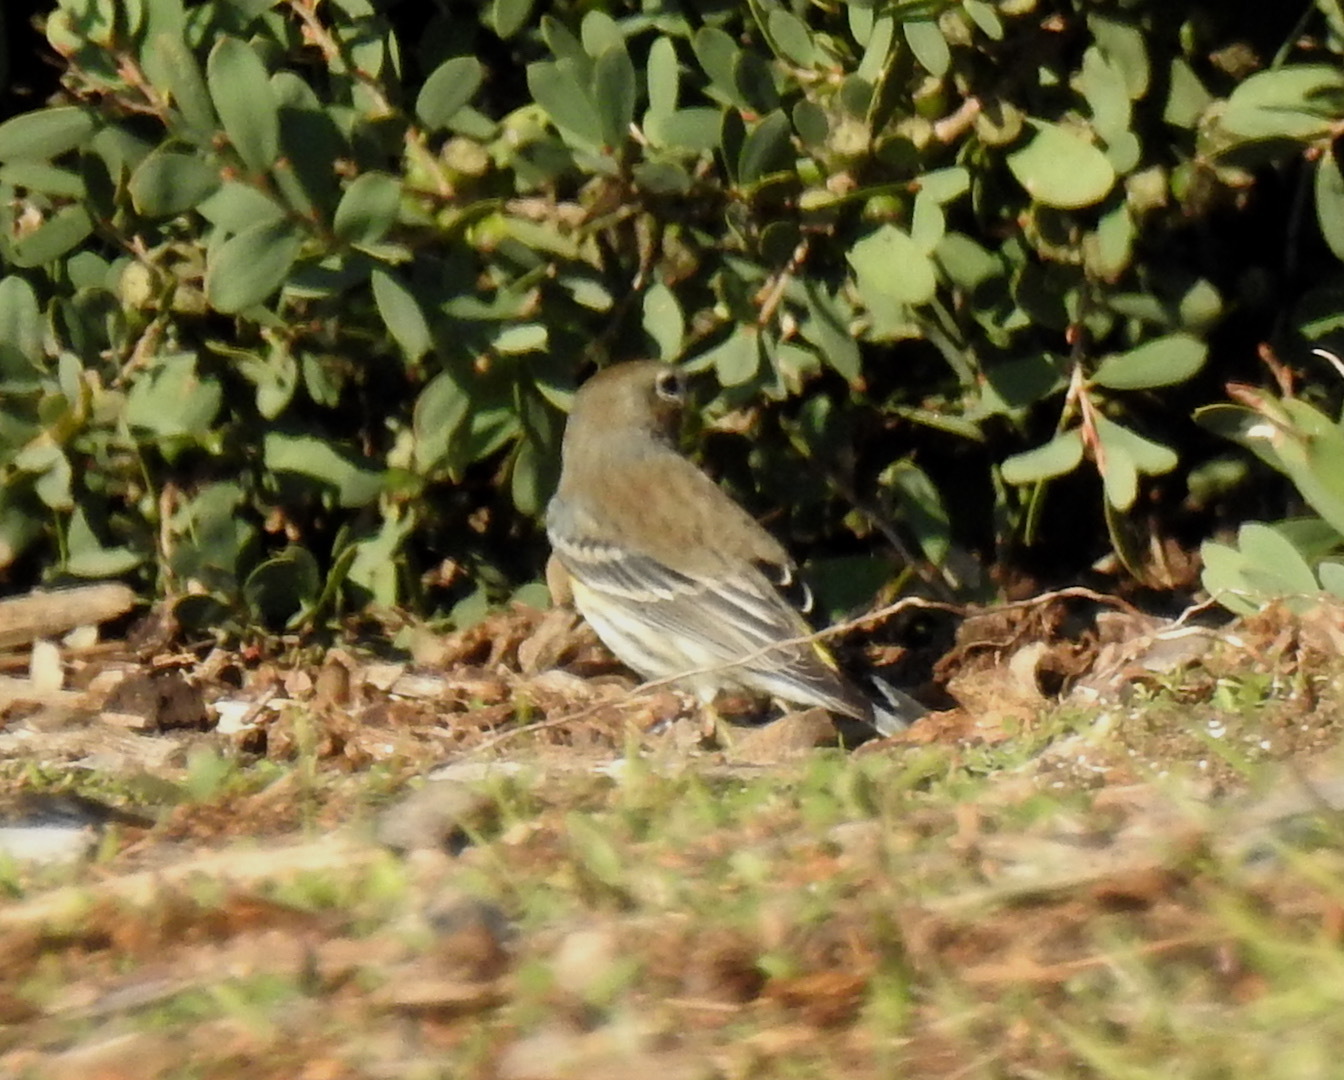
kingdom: Animalia
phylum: Chordata
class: Aves
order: Passeriformes
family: Parulidae
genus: Setophaga
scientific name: Setophaga auduboni
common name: Audubon's warbler
